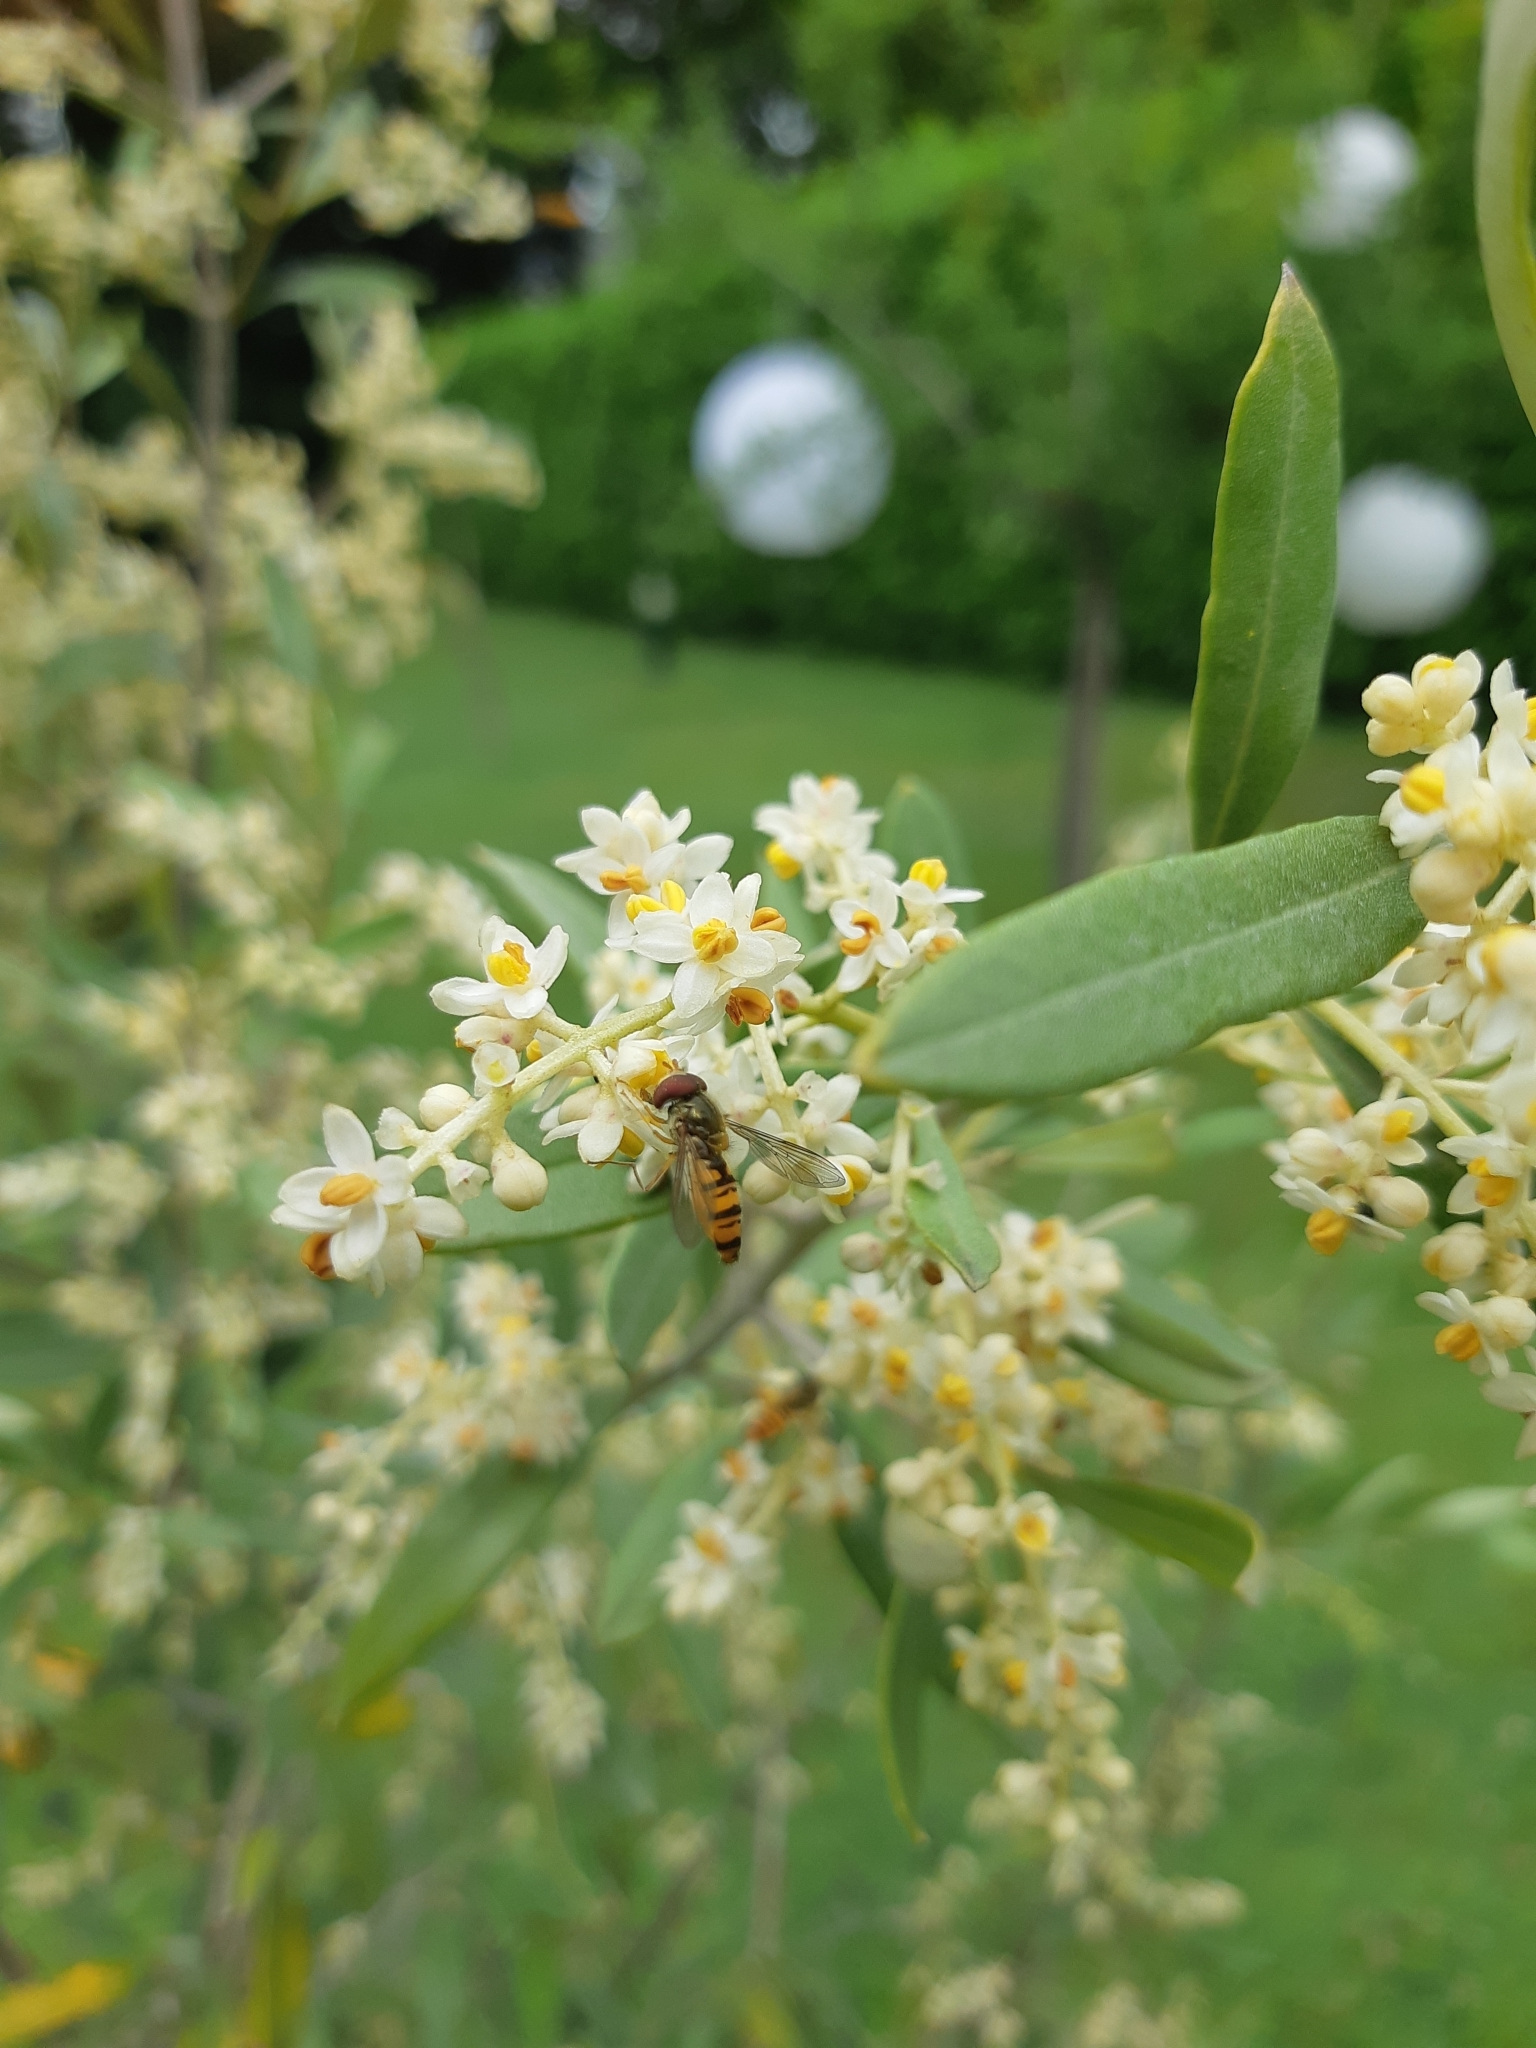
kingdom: Animalia
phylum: Arthropoda
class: Insecta
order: Diptera
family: Syrphidae
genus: Episyrphus
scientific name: Episyrphus balteatus
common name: Marmalade hoverfly
